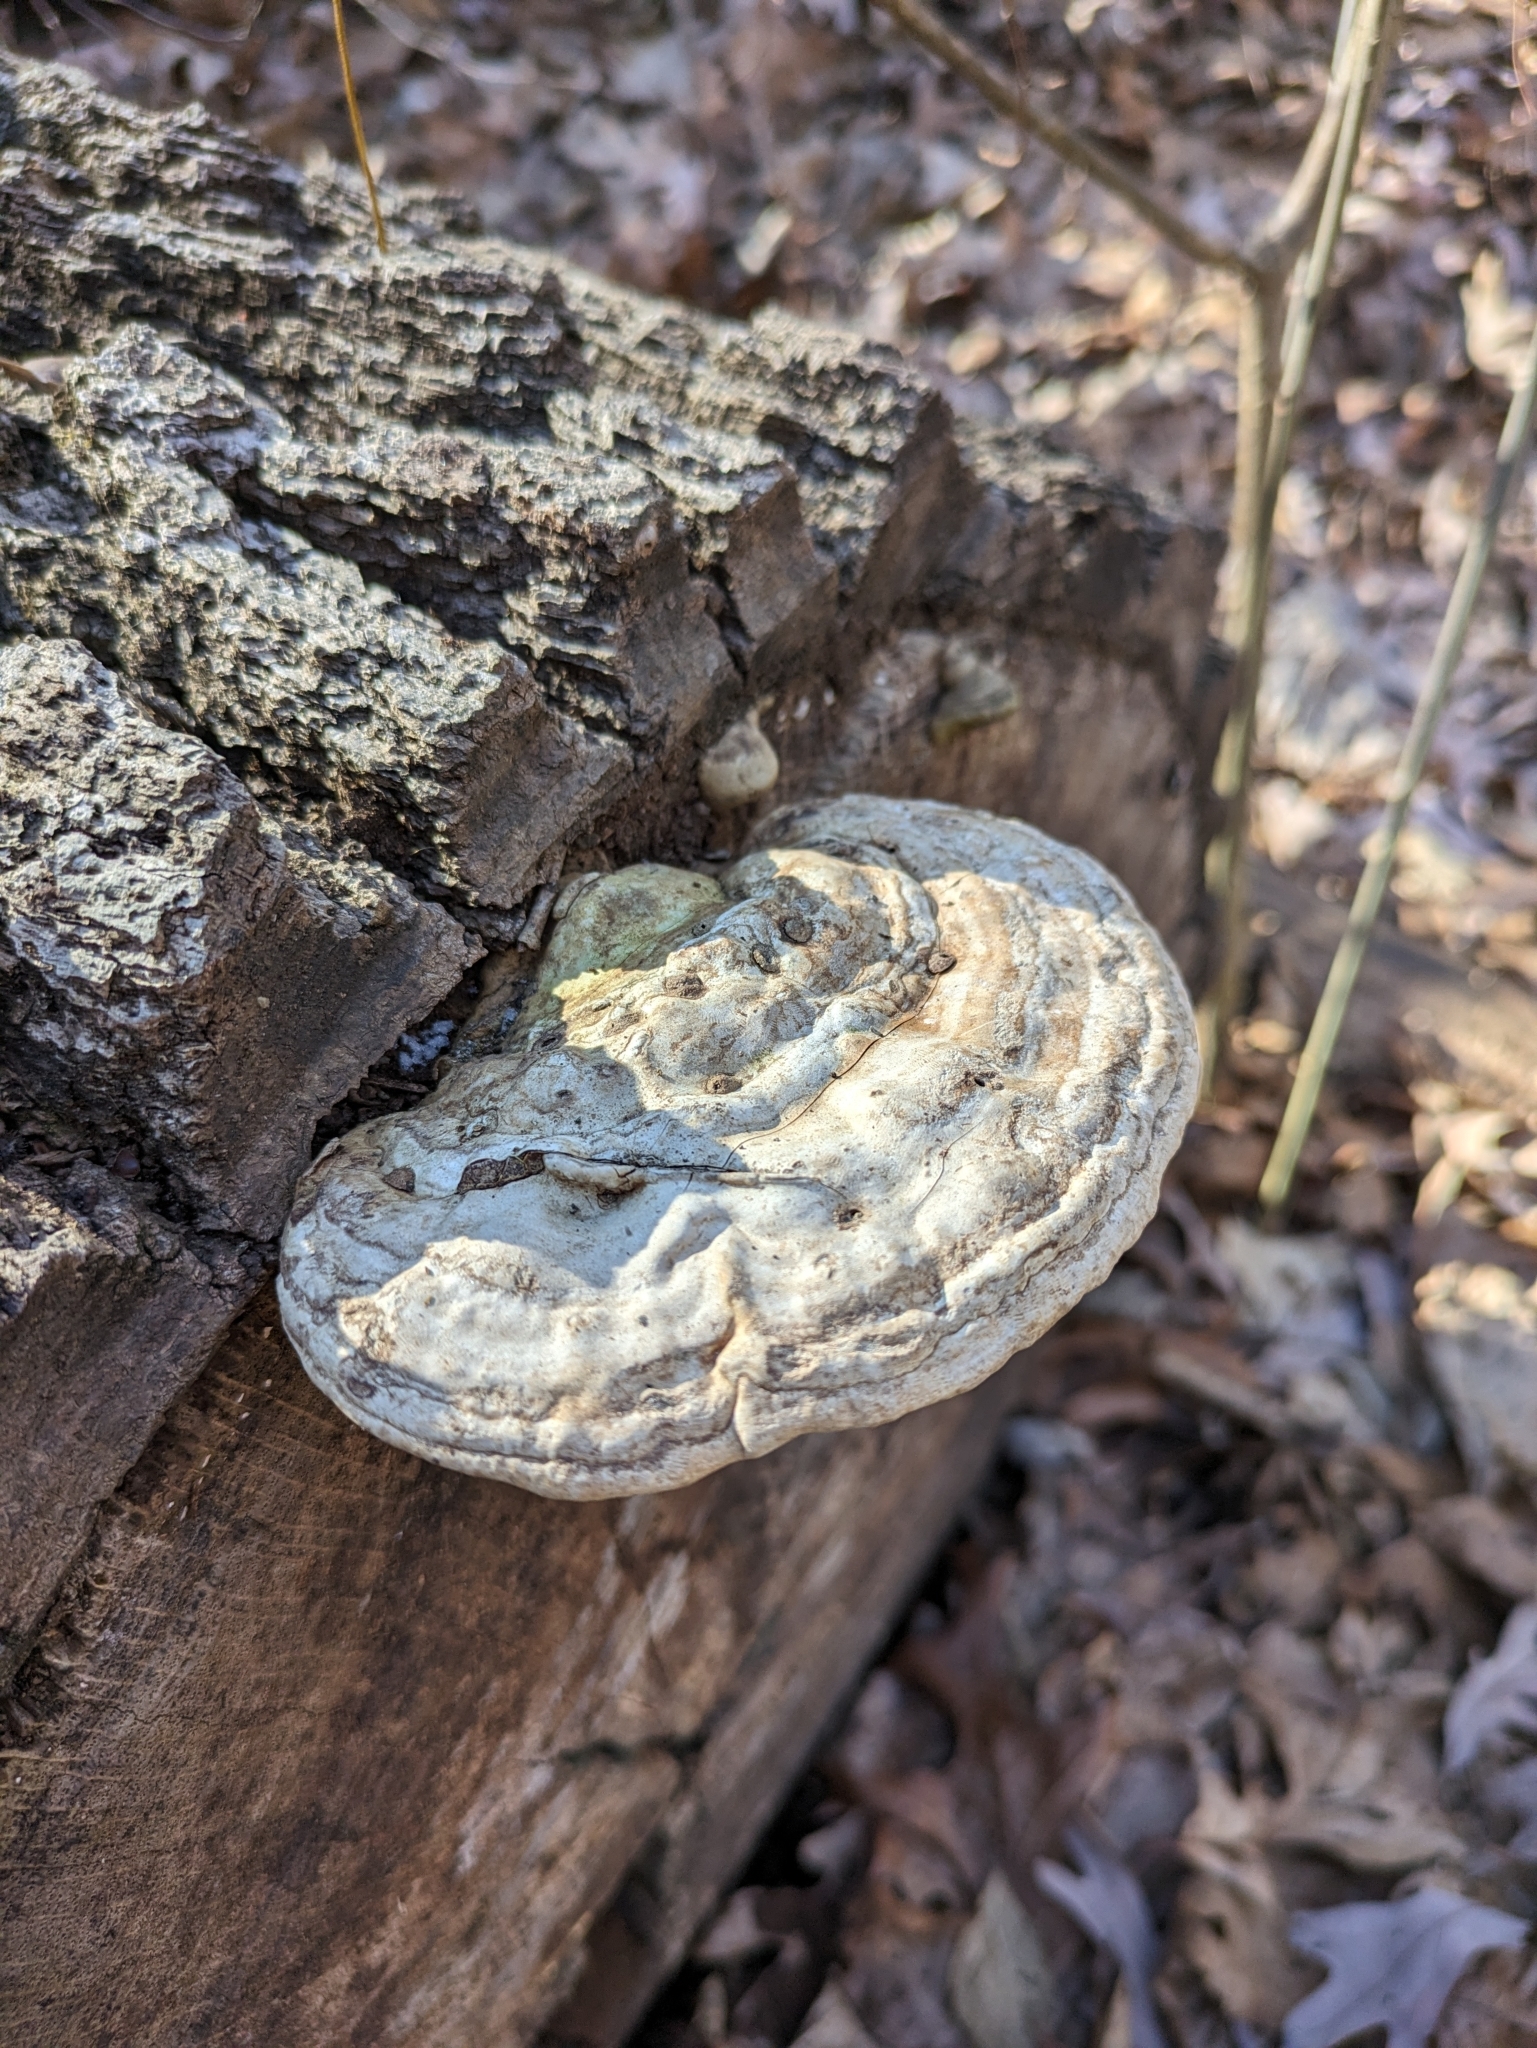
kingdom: Fungi
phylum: Basidiomycota
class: Agaricomycetes
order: Polyporales
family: Polyporaceae
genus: Ganoderma
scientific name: Ganoderma applanatum
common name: Artist's bracket
